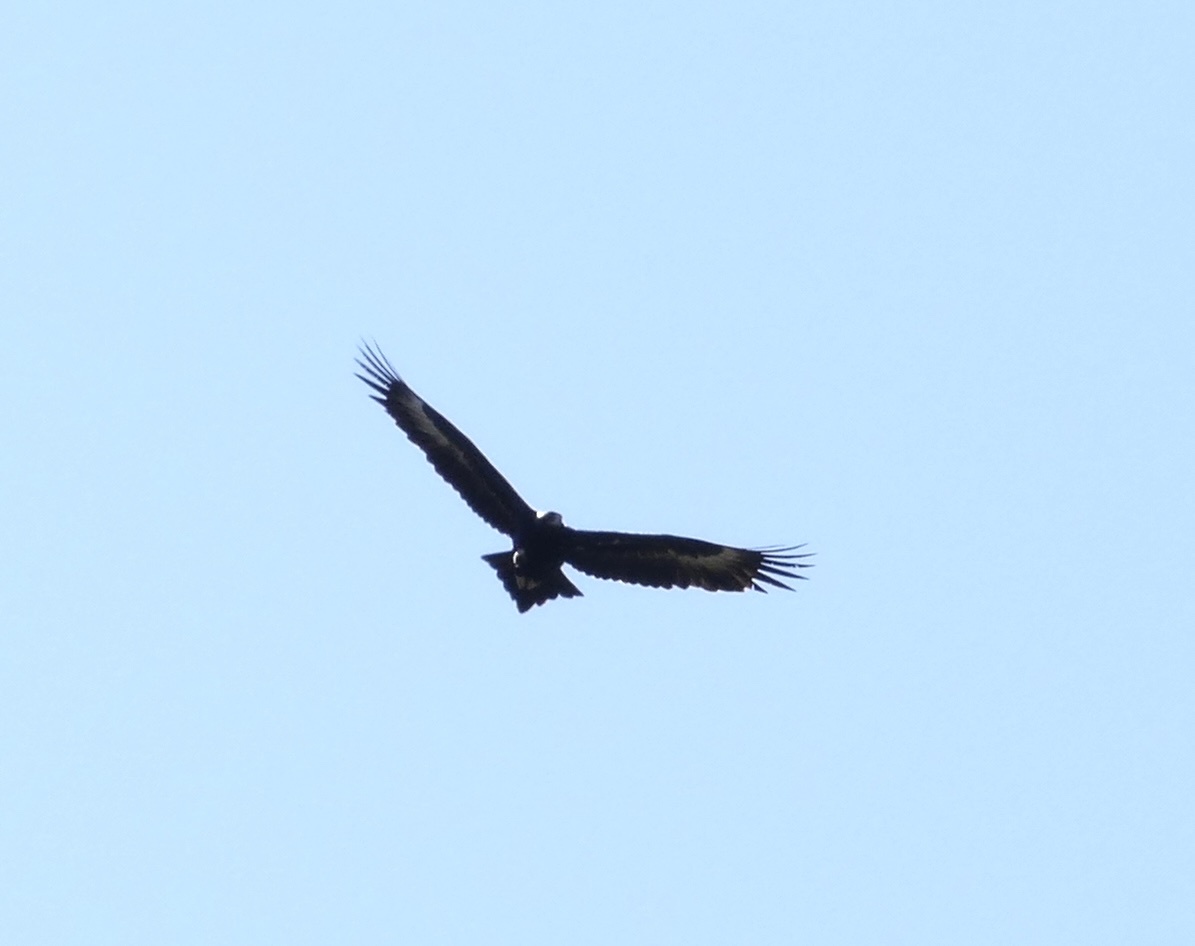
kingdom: Animalia
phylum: Chordata
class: Aves
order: Accipitriformes
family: Accipitridae
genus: Aquila
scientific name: Aquila audax
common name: Wedge-tailed eagle
